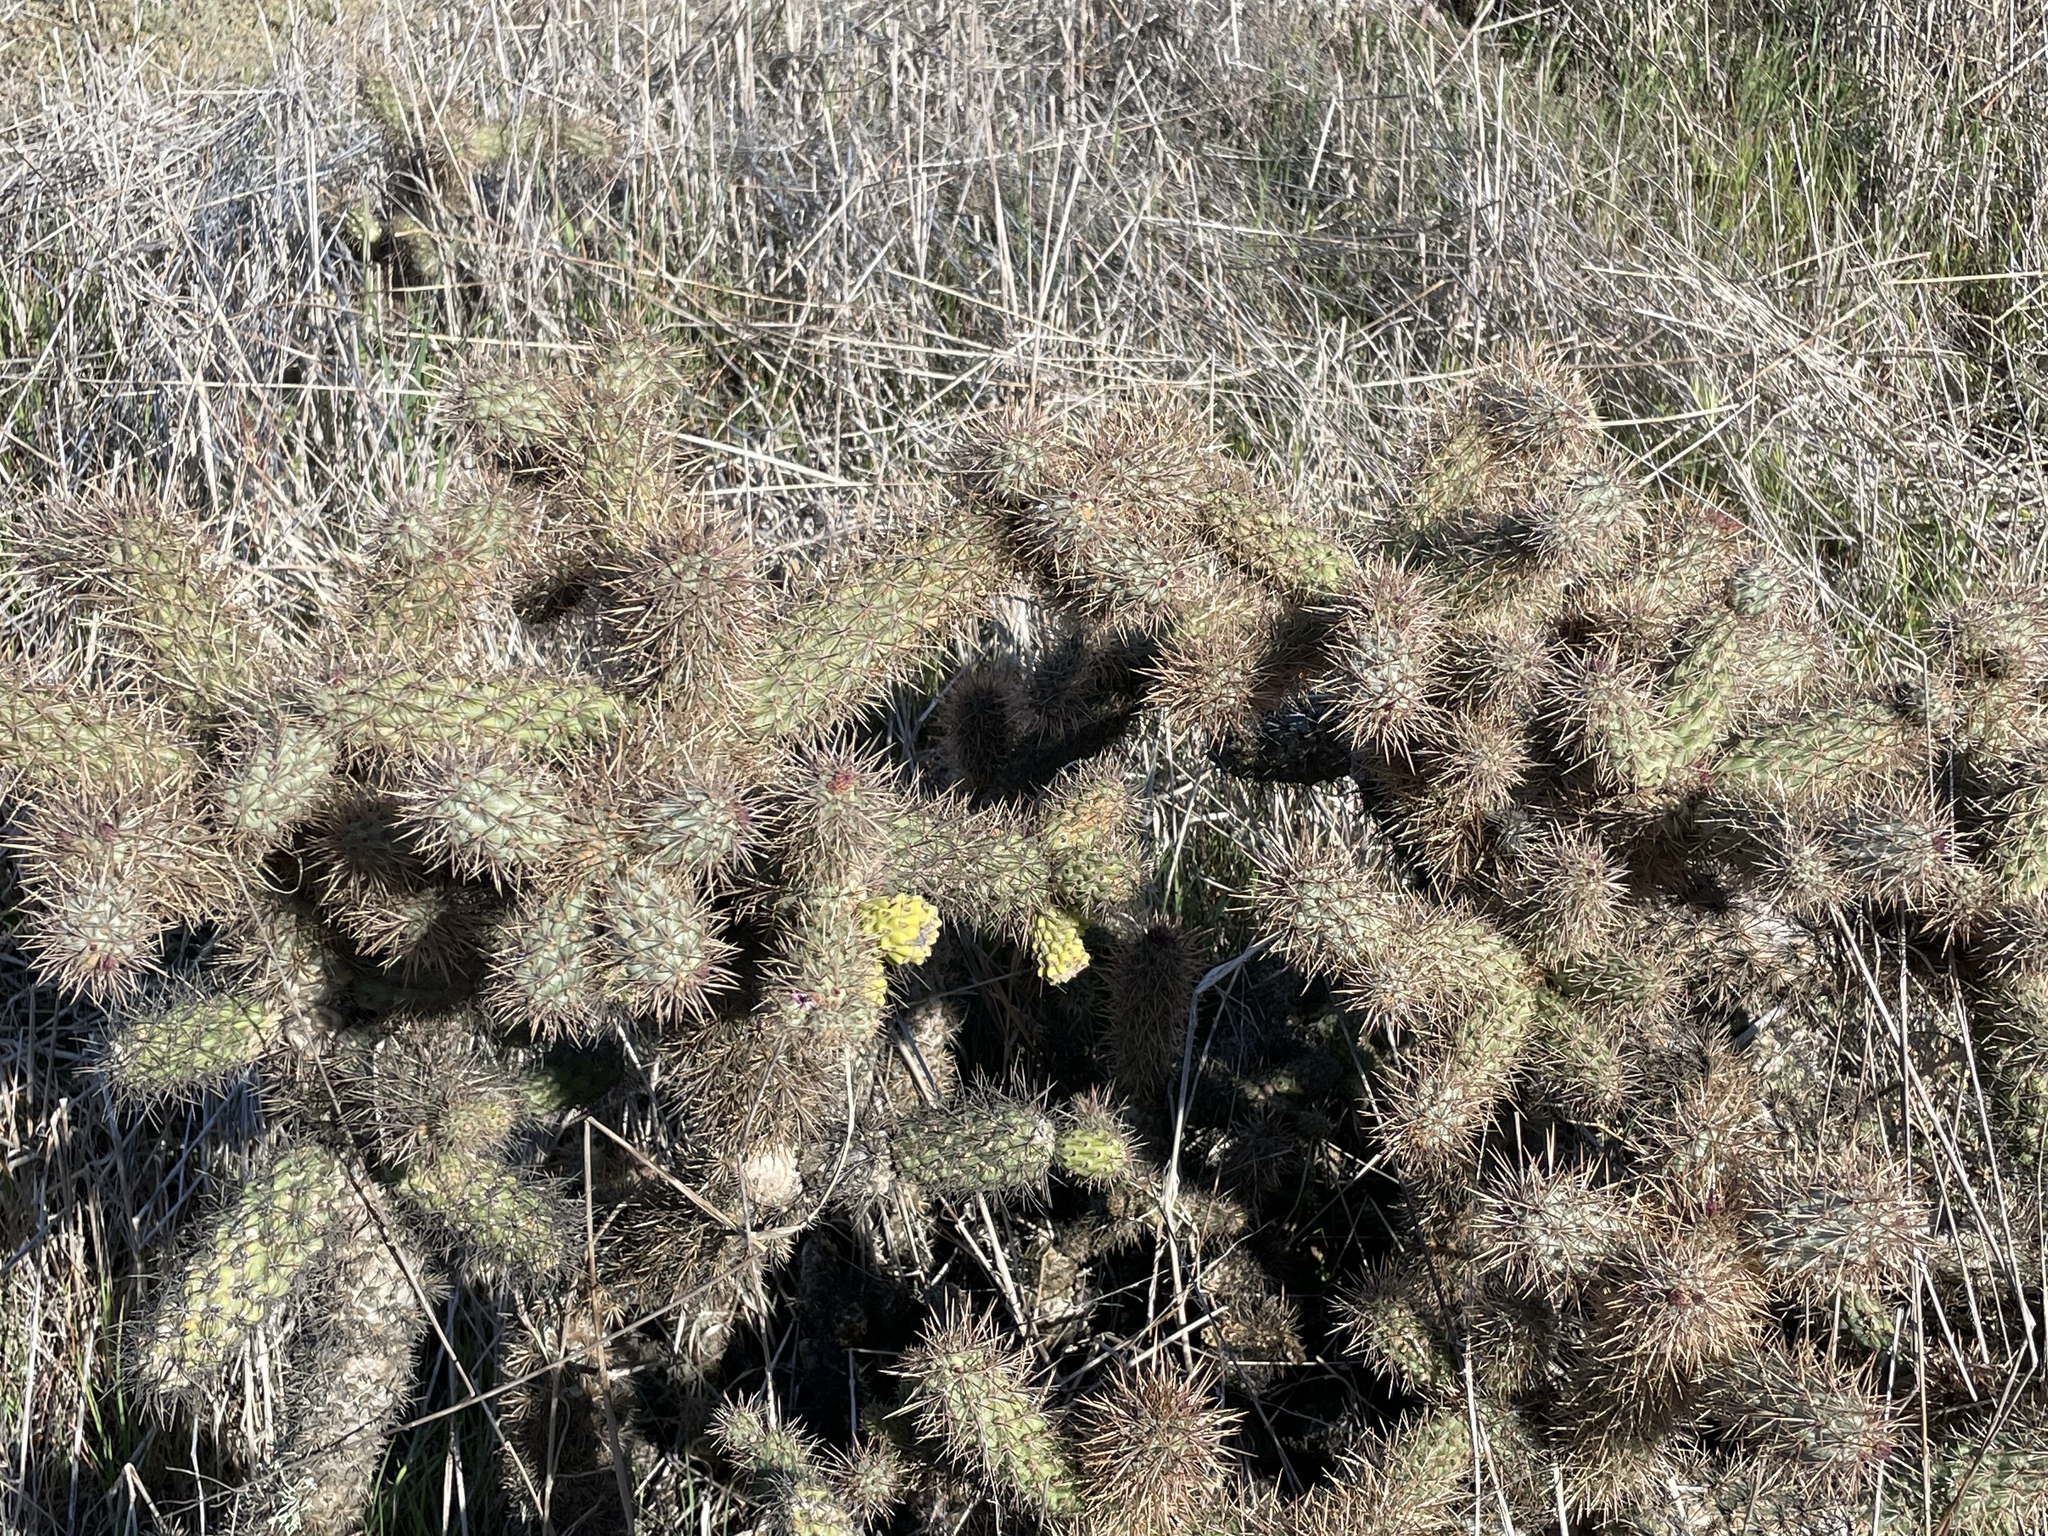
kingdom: Plantae
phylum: Tracheophyta
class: Magnoliopsida
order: Caryophyllales
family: Cactaceae
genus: Cylindropuntia
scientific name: Cylindropuntia prolifera
